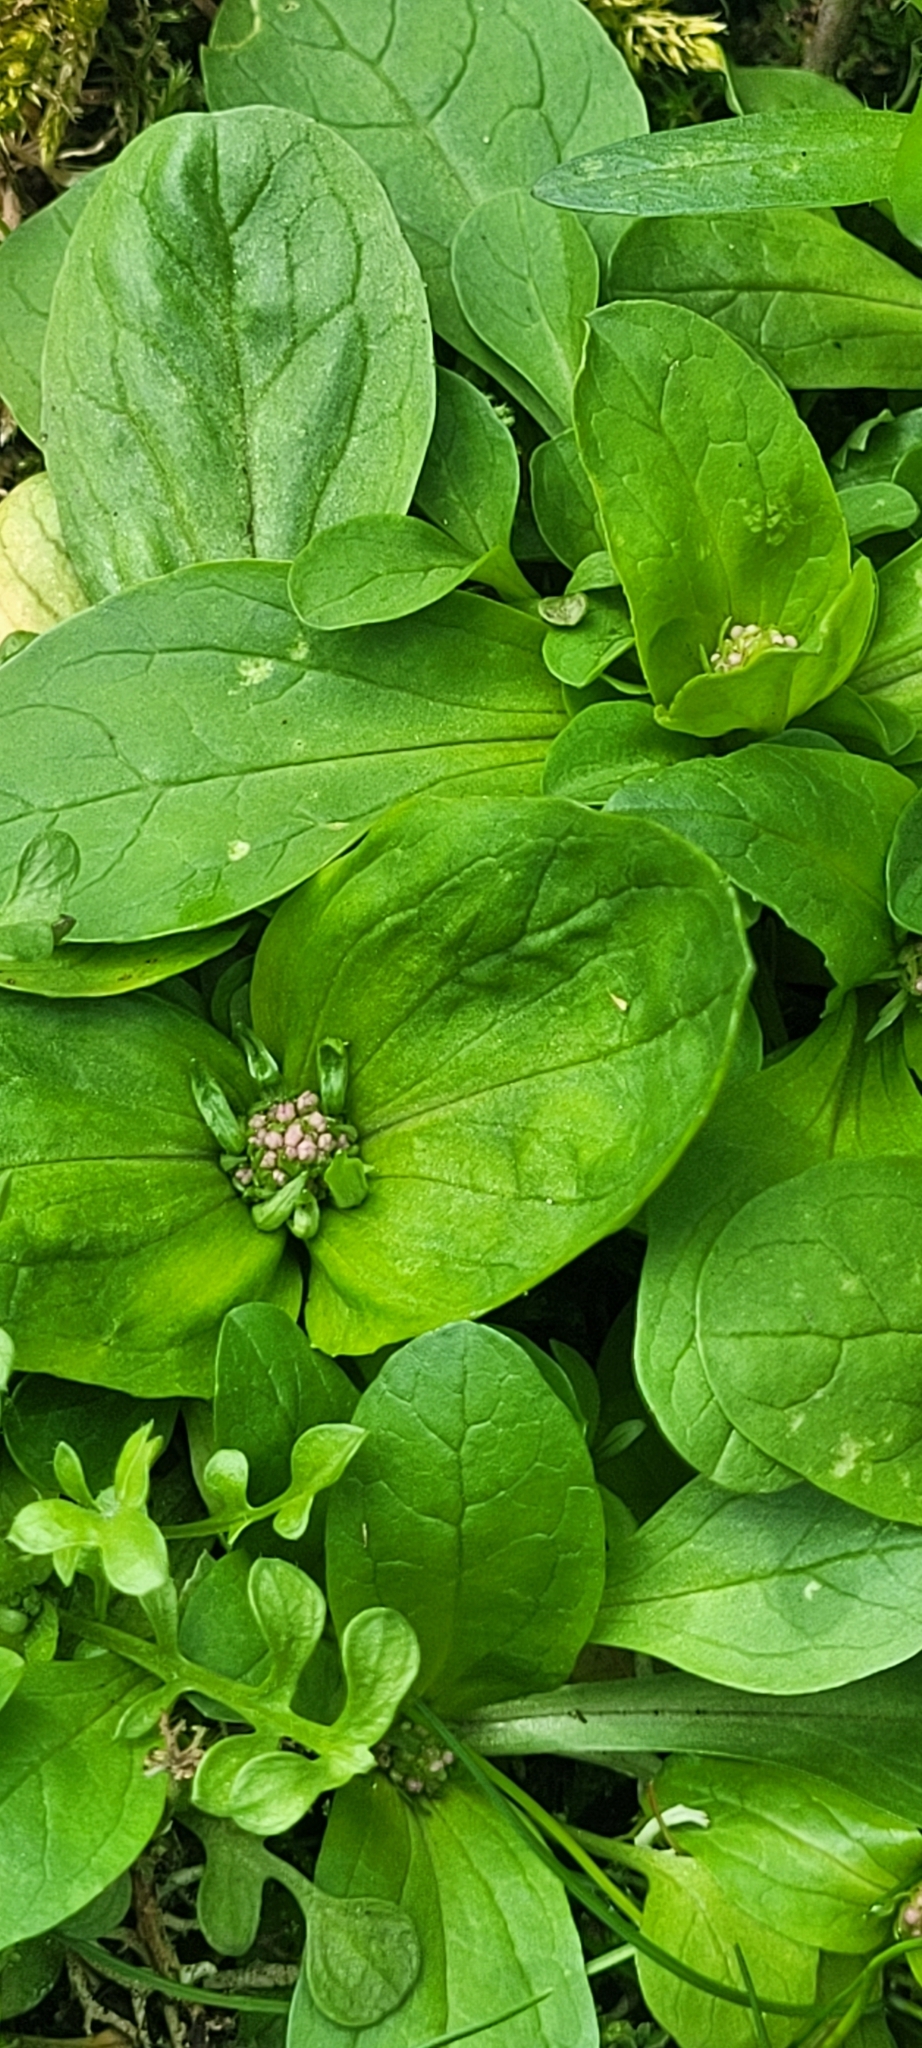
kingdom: Plantae
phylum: Tracheophyta
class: Magnoliopsida
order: Dipsacales
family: Caprifoliaceae
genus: Plectritis
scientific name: Plectritis congesta
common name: Pink plectritis
